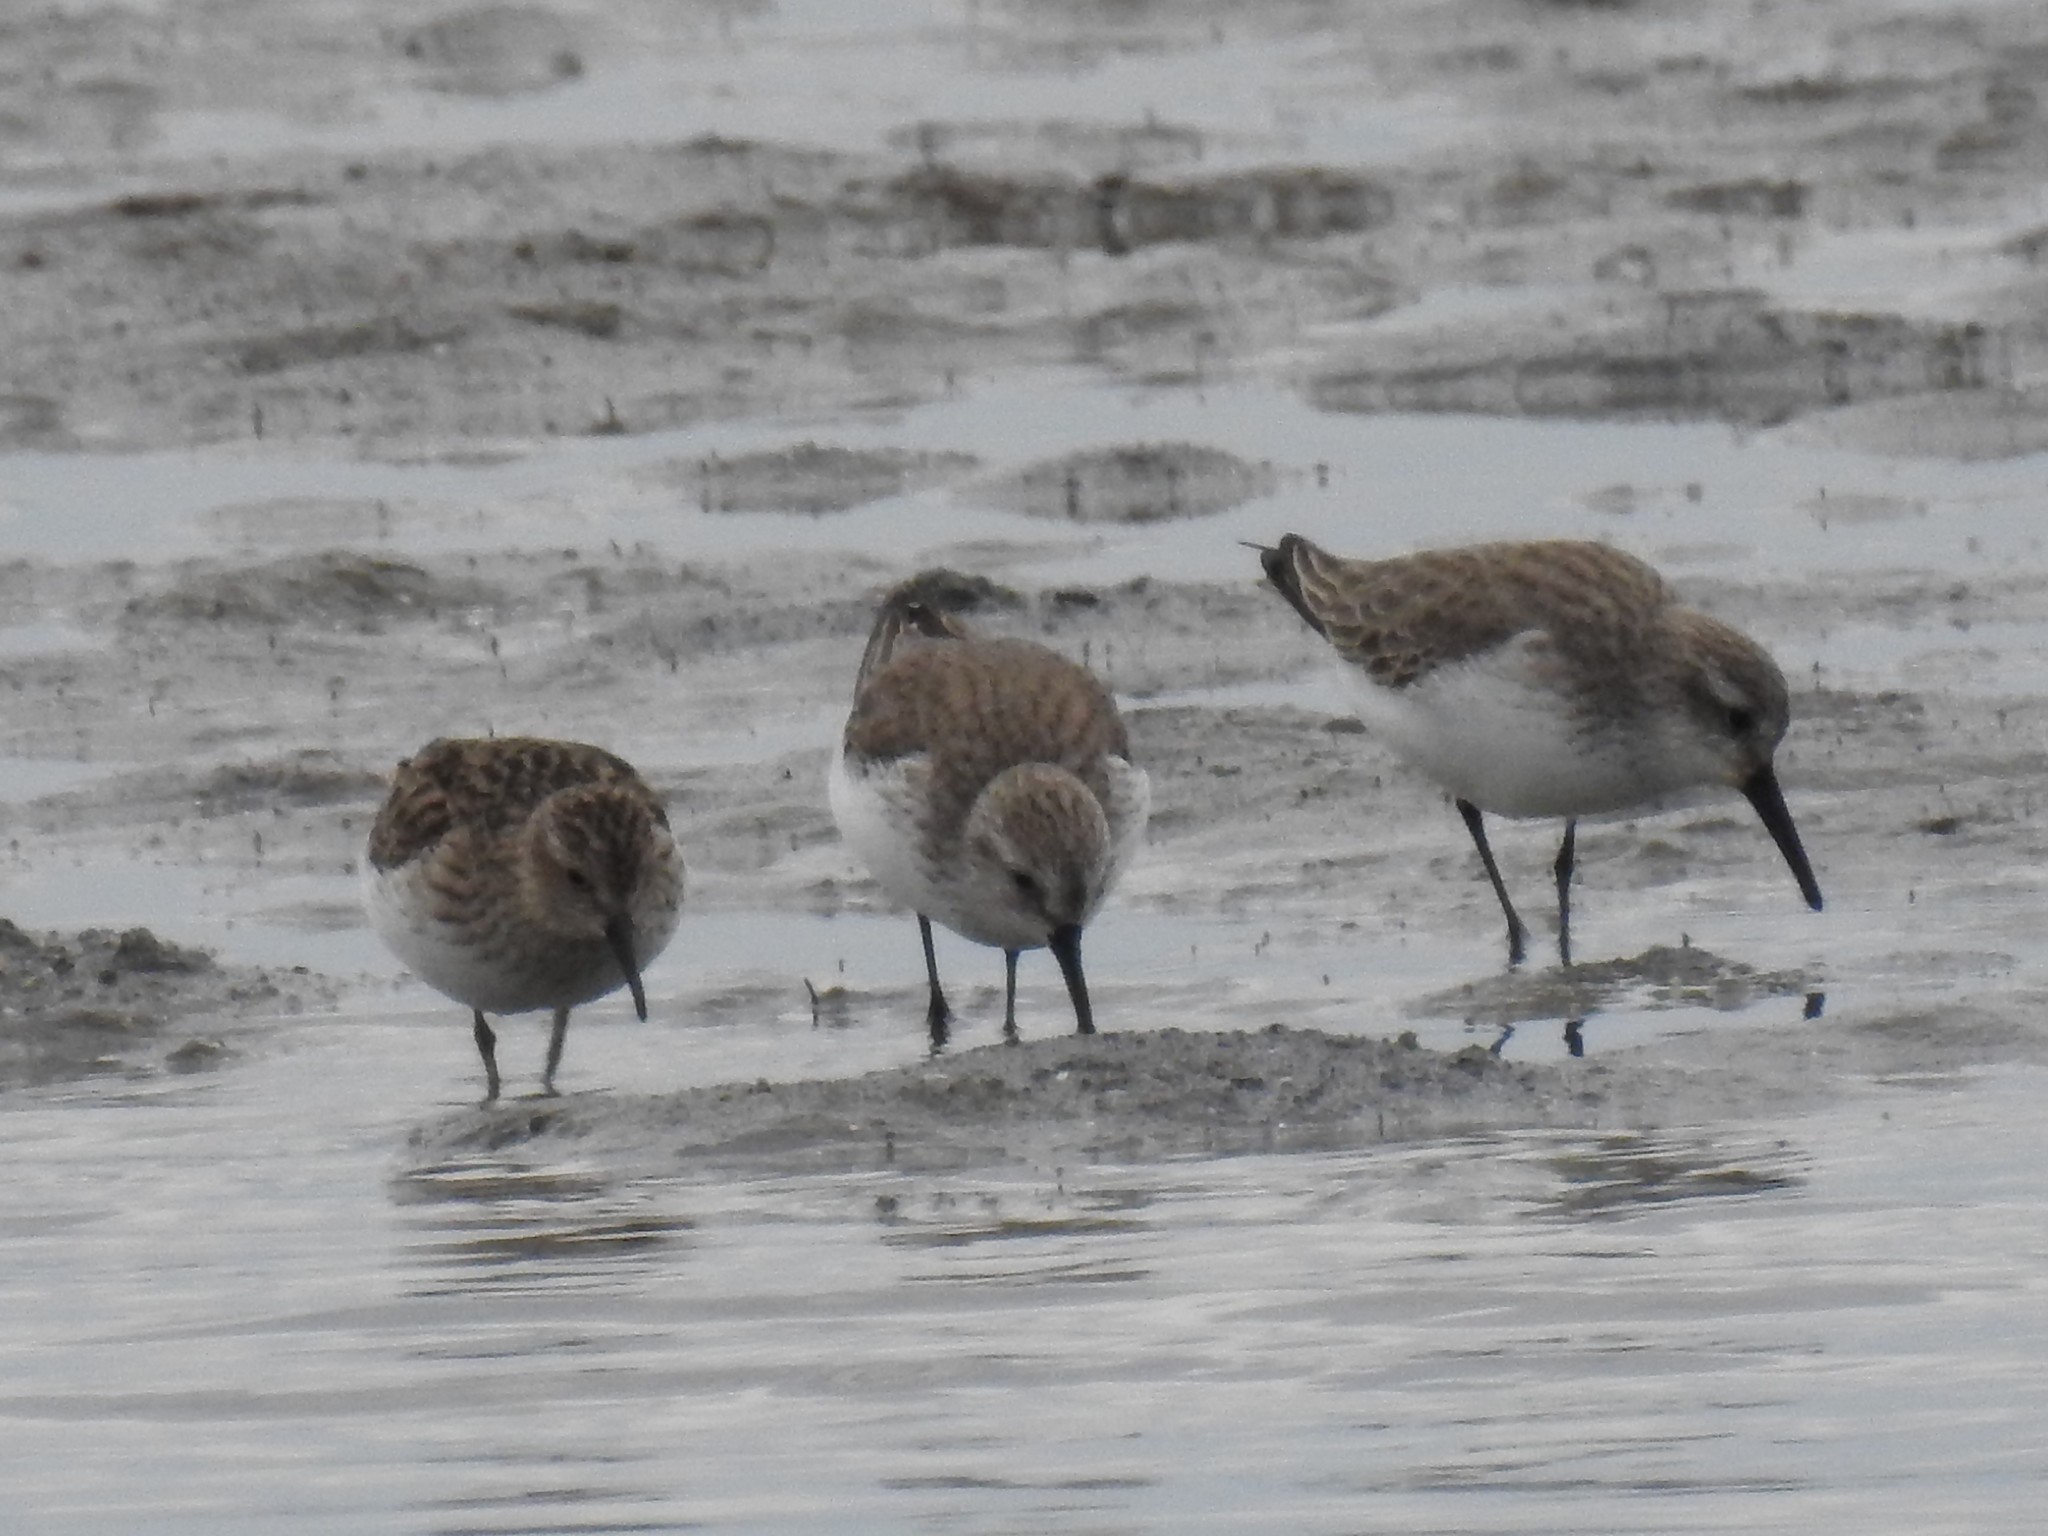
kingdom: Animalia
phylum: Chordata
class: Aves
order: Charadriiformes
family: Scolopacidae
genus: Calidris
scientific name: Calidris mauri
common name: Western sandpiper
